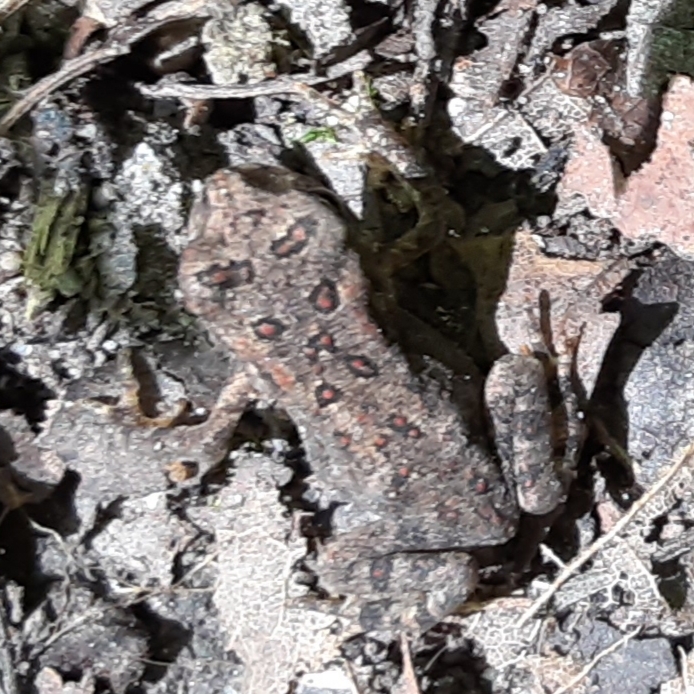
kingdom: Animalia
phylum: Chordata
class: Amphibia
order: Anura
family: Bufonidae
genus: Anaxyrus
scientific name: Anaxyrus americanus
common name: American toad
